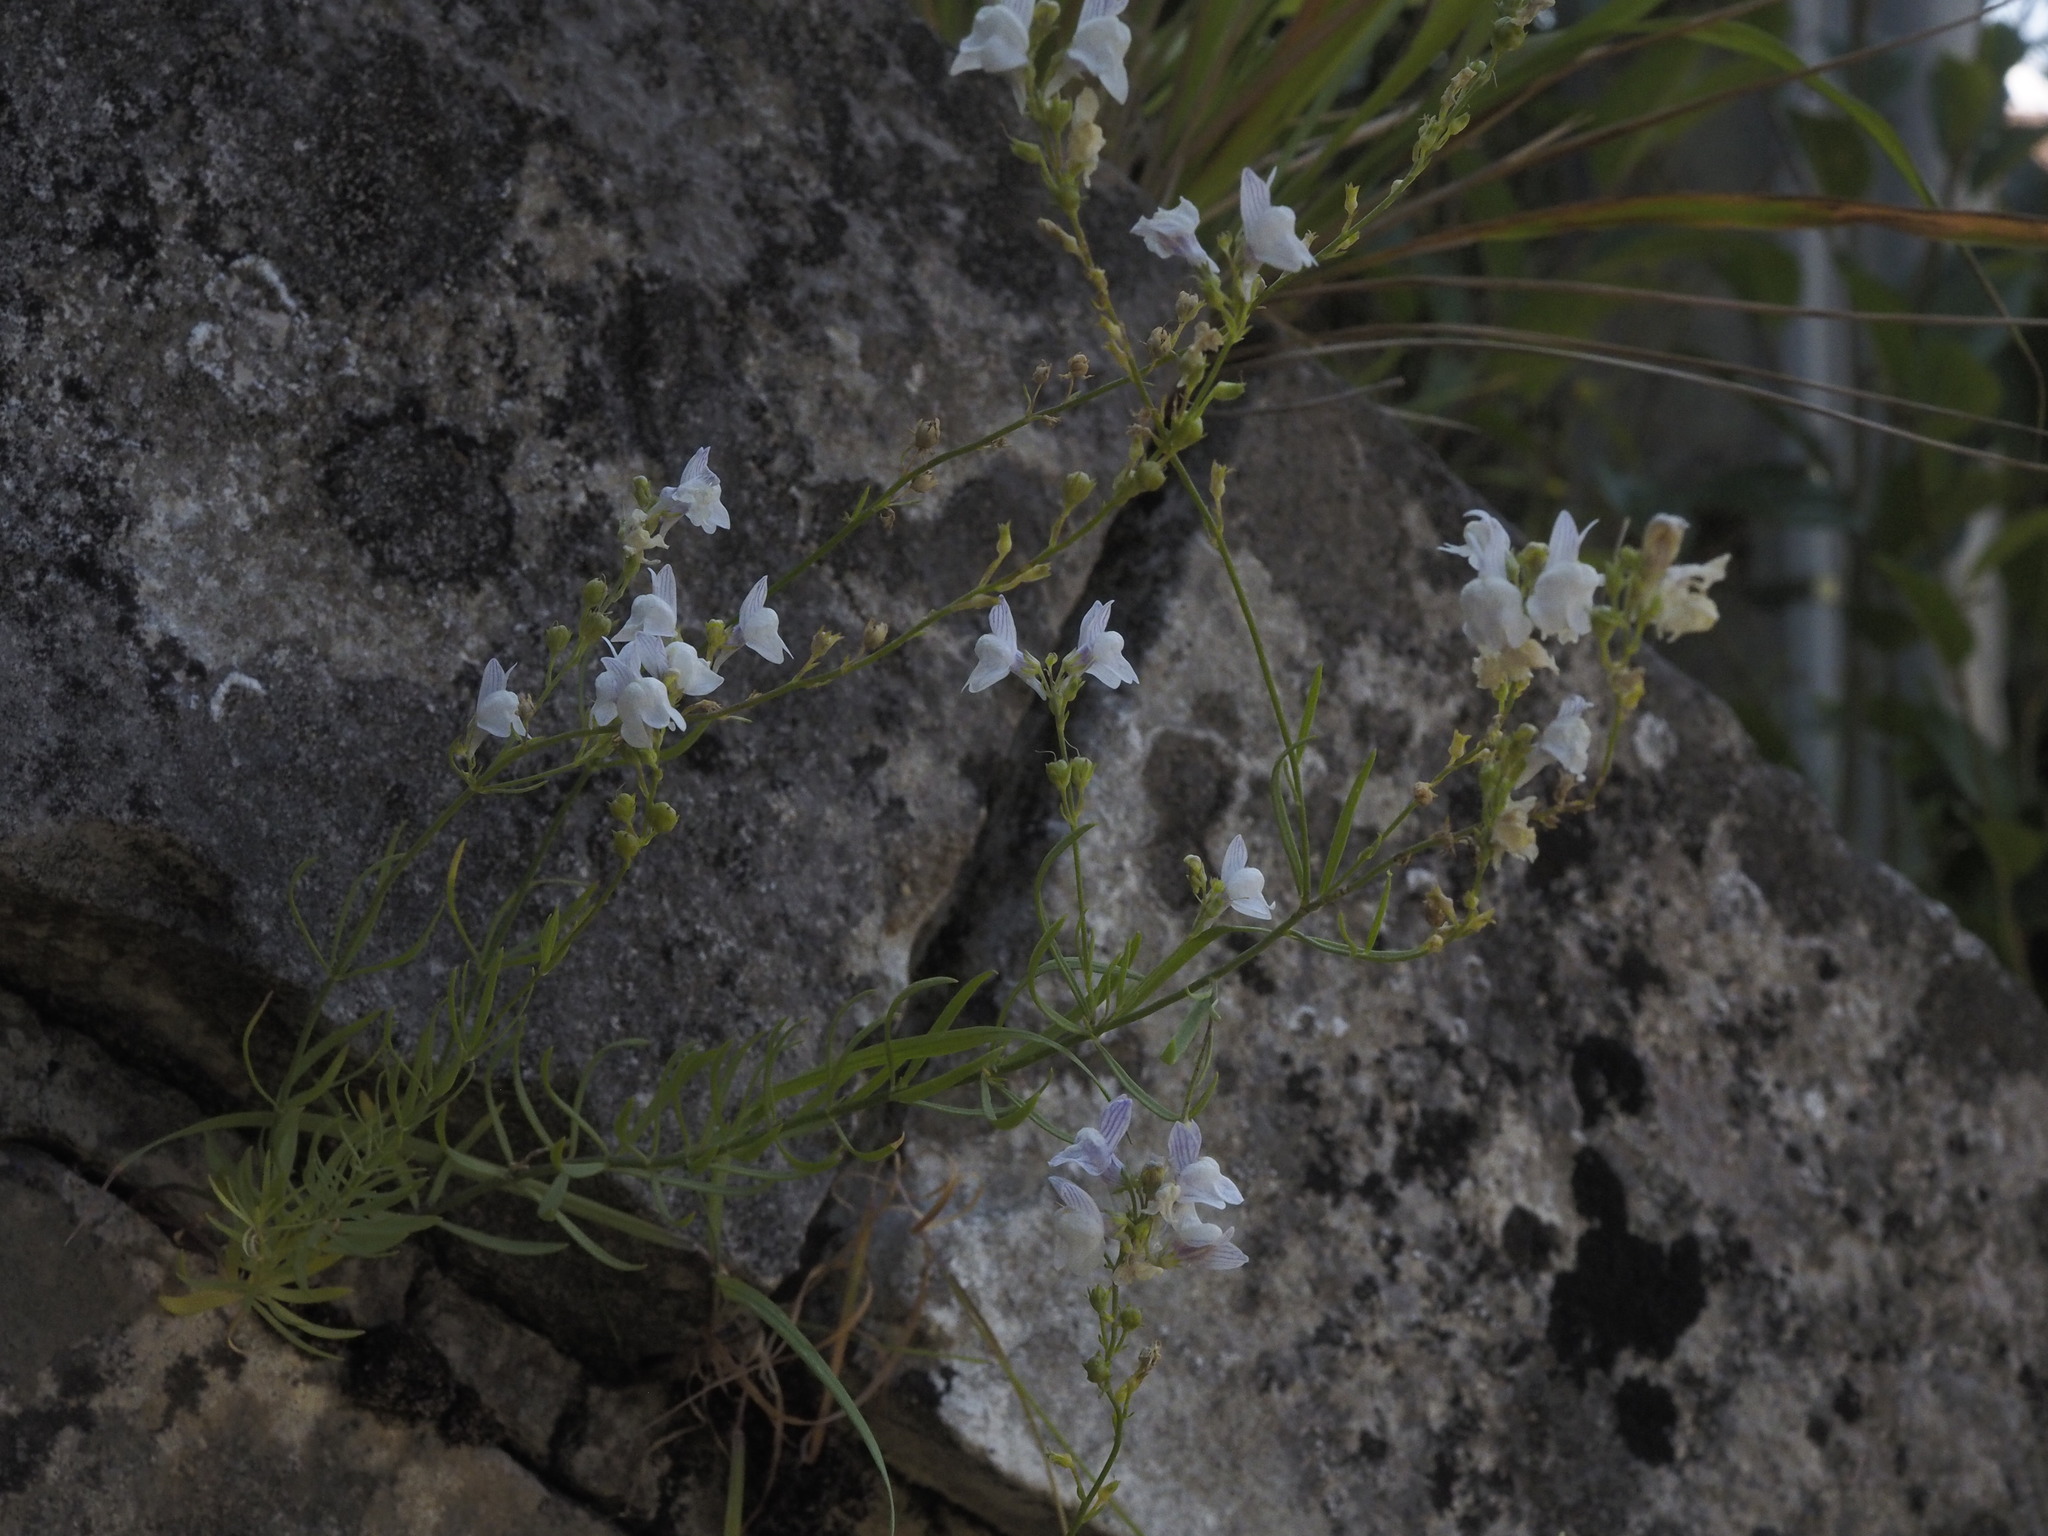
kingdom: Plantae
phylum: Tracheophyta
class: Magnoliopsida
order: Lamiales
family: Plantaginaceae
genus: Linaria
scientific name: Linaria repens
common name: Pale toadflax
